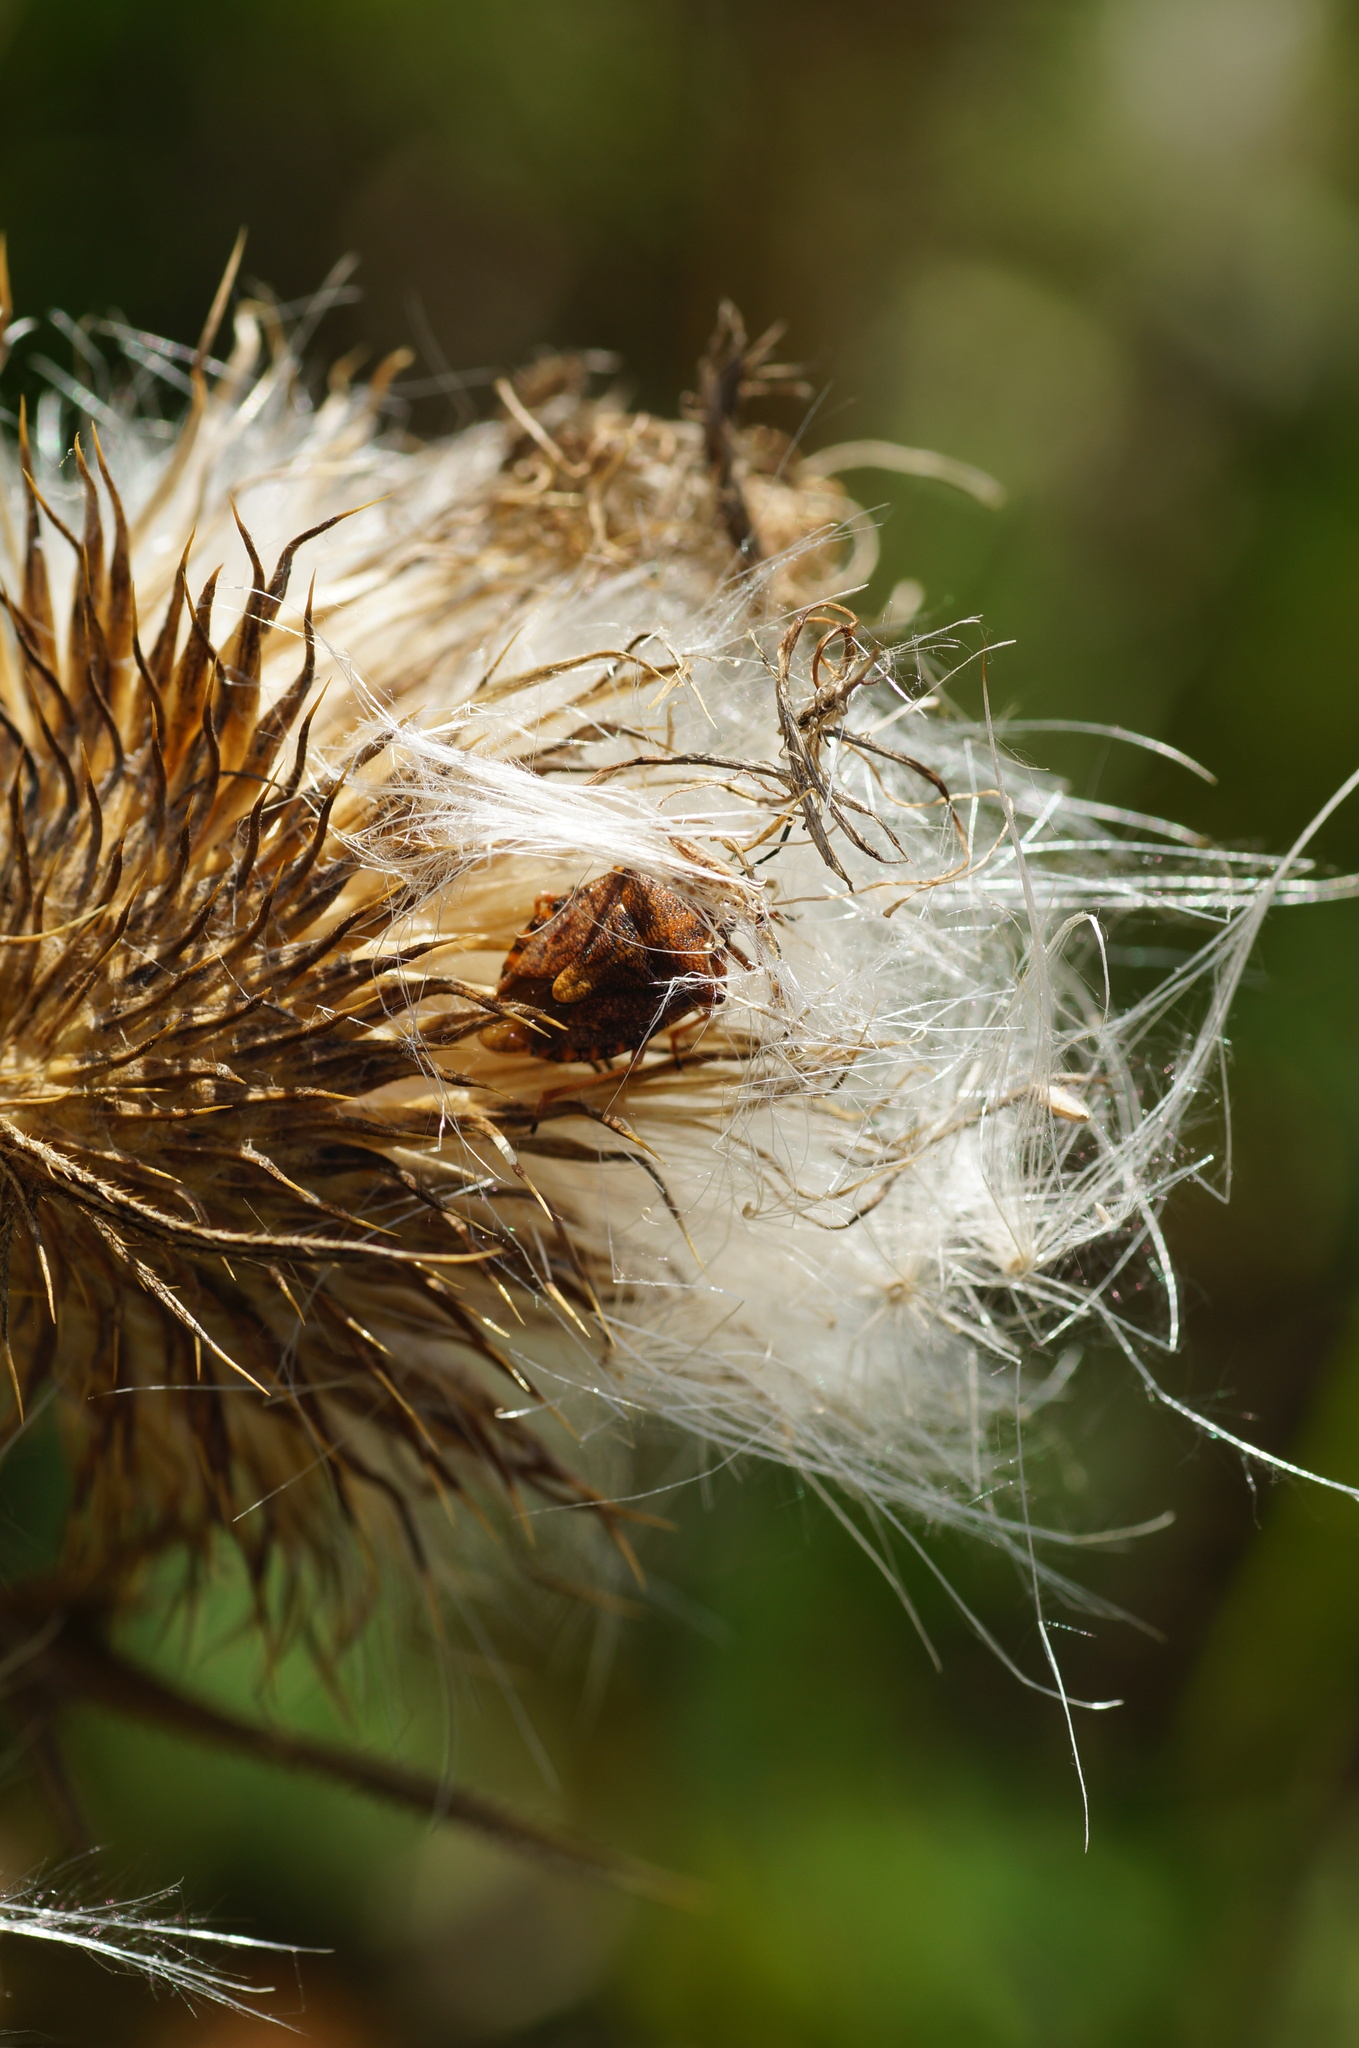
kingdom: Animalia
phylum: Arthropoda
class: Insecta
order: Hemiptera
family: Pentatomidae
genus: Carpocoris
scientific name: Carpocoris purpureipennis
